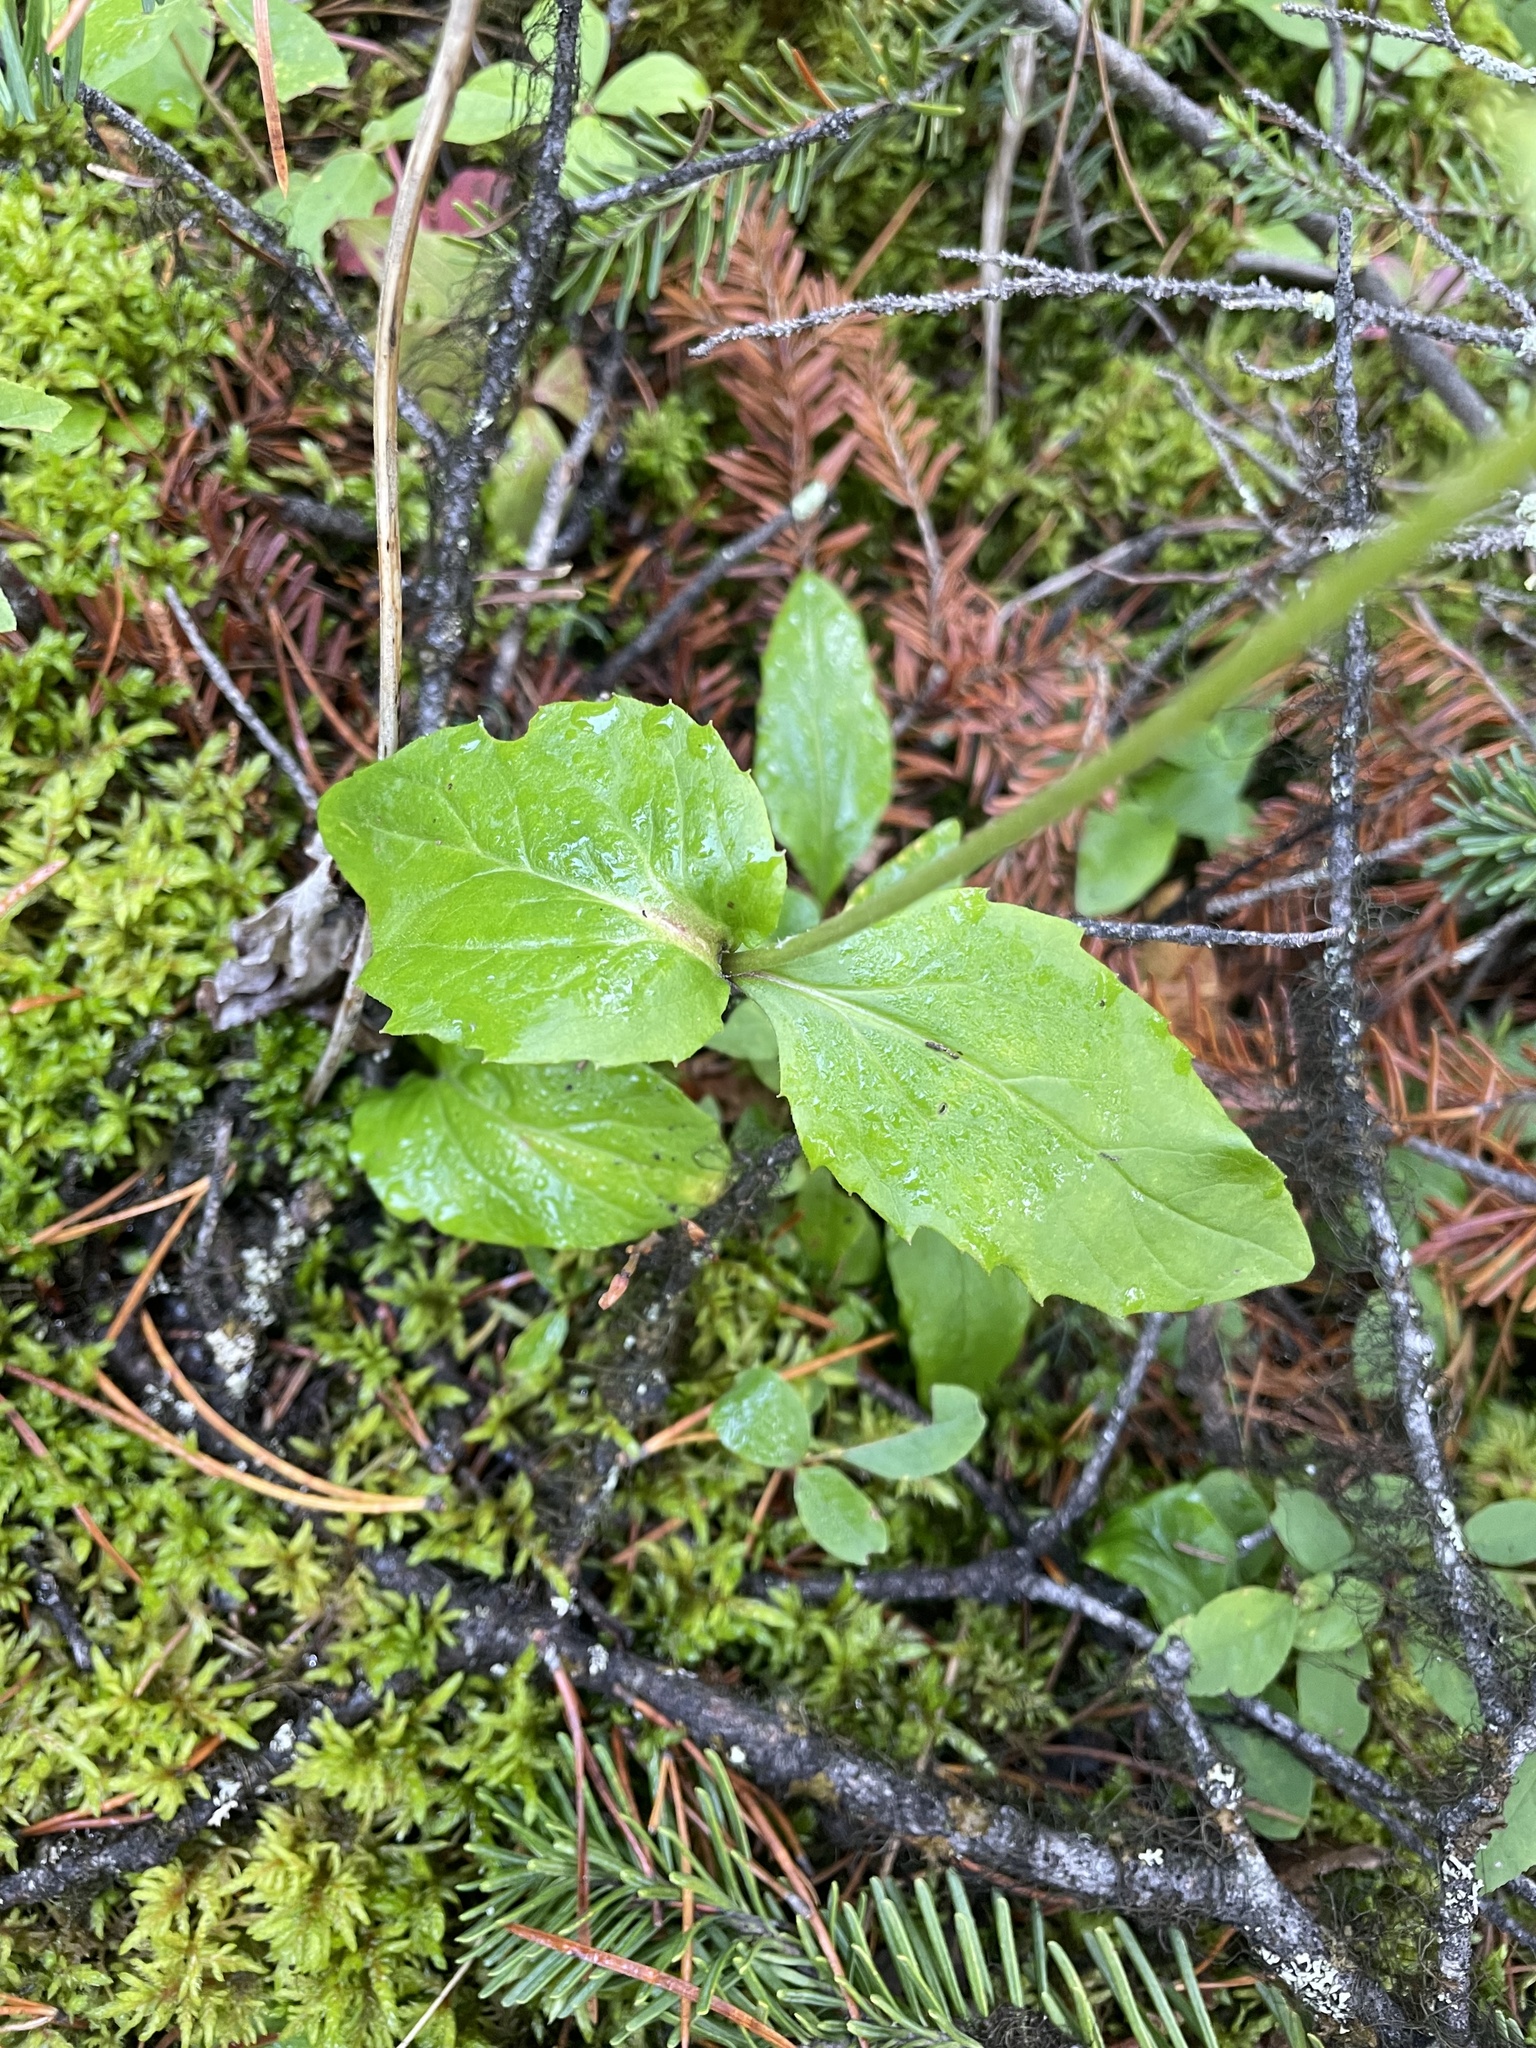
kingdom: Plantae
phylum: Tracheophyta
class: Magnoliopsida
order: Asterales
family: Asteraceae
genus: Arnica
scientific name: Arnica latifolia
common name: Arnica
